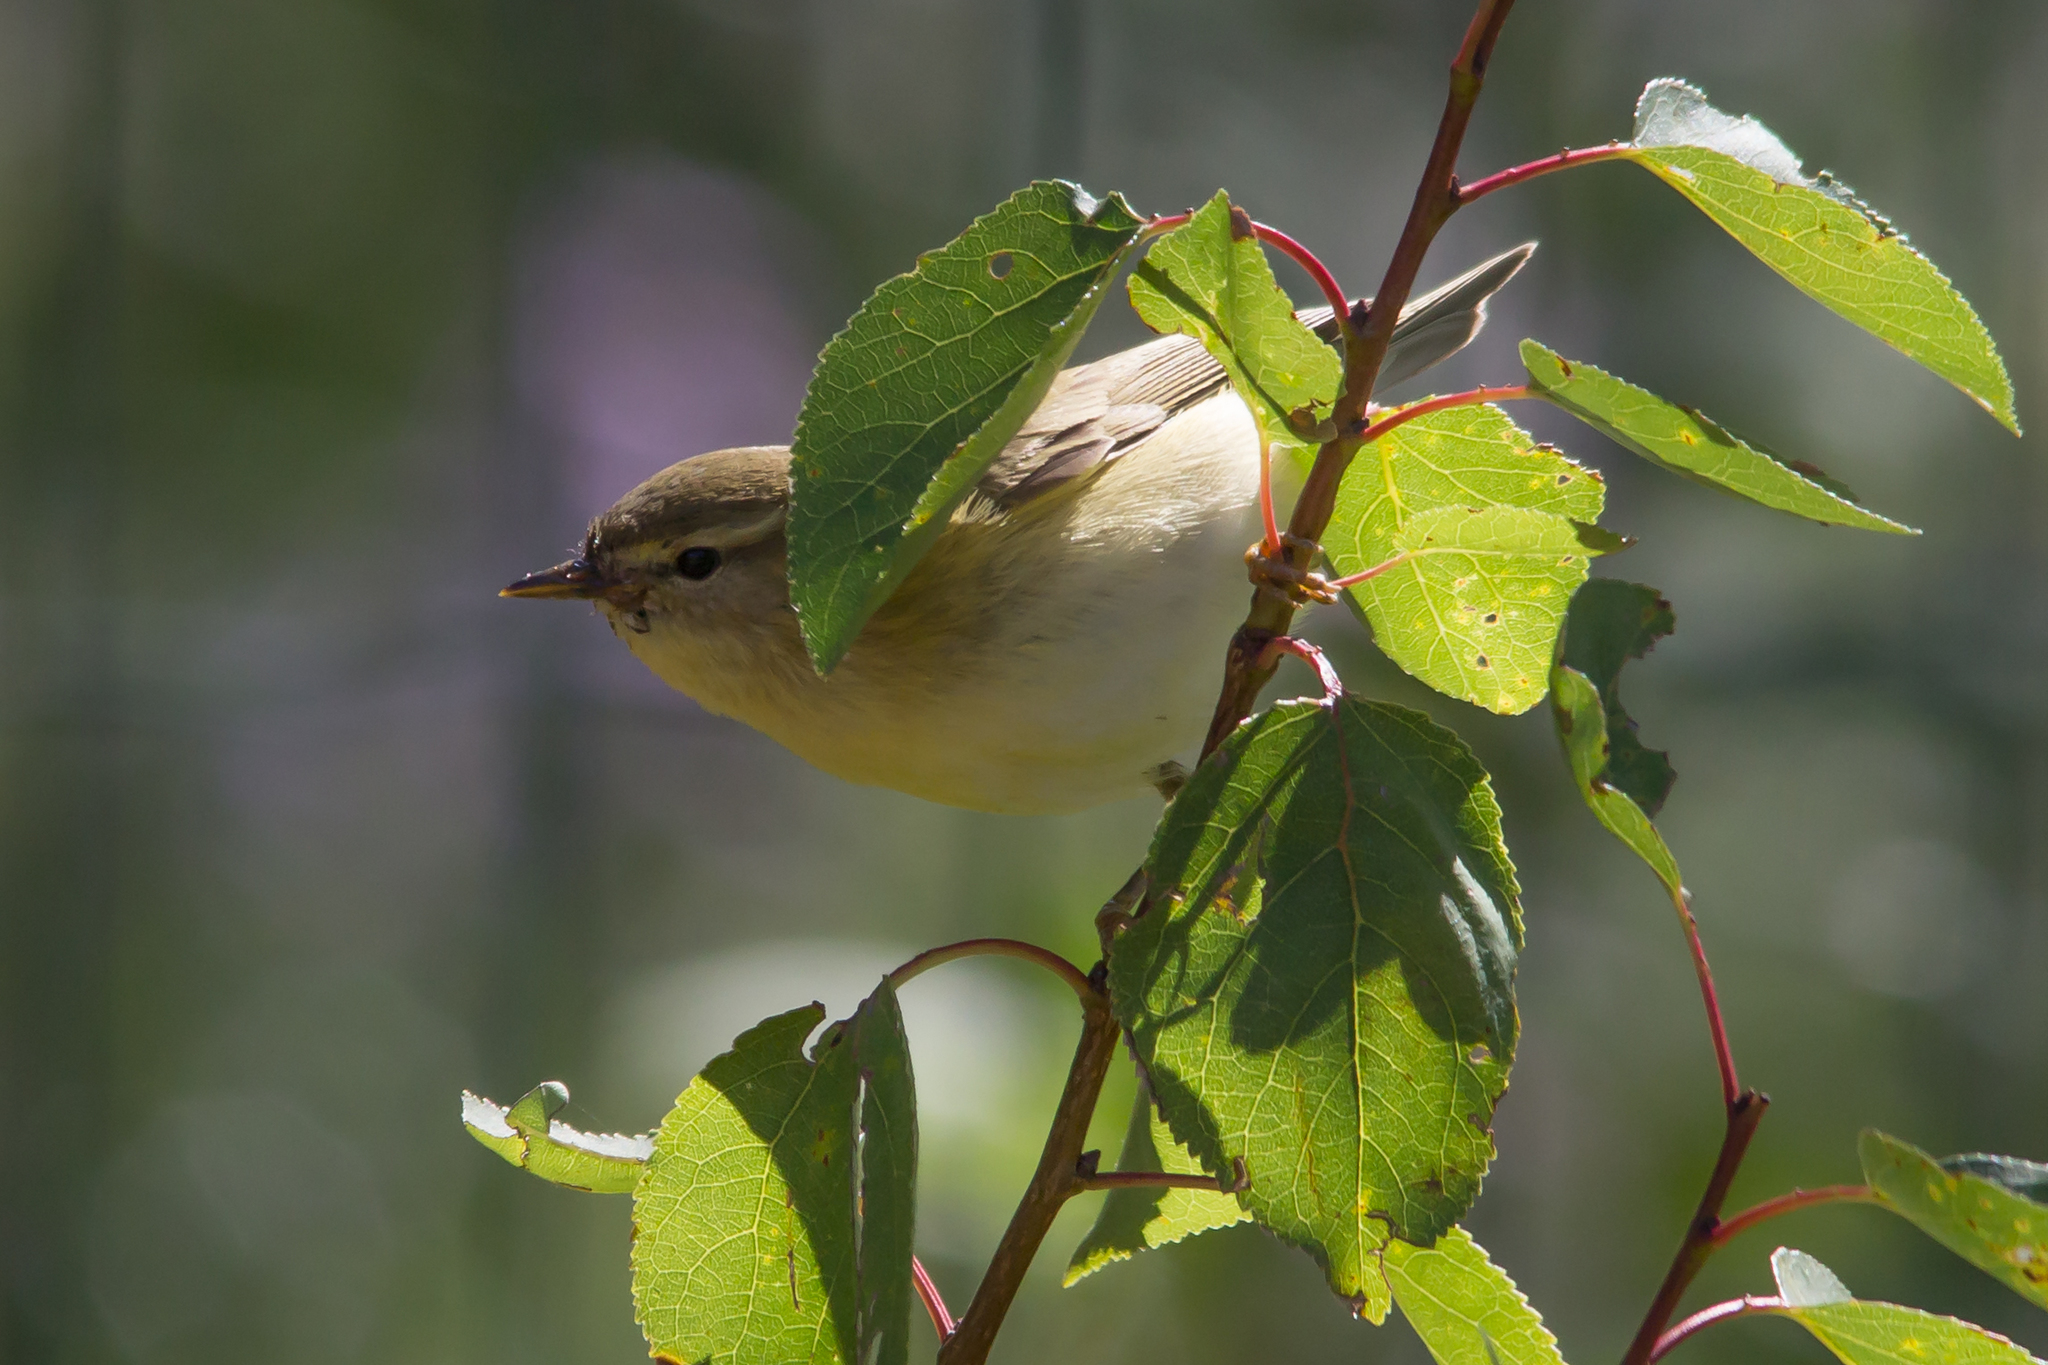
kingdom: Animalia
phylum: Chordata
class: Aves
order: Passeriformes
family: Phylloscopidae
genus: Phylloscopus
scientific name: Phylloscopus trochilus
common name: Willow warbler
